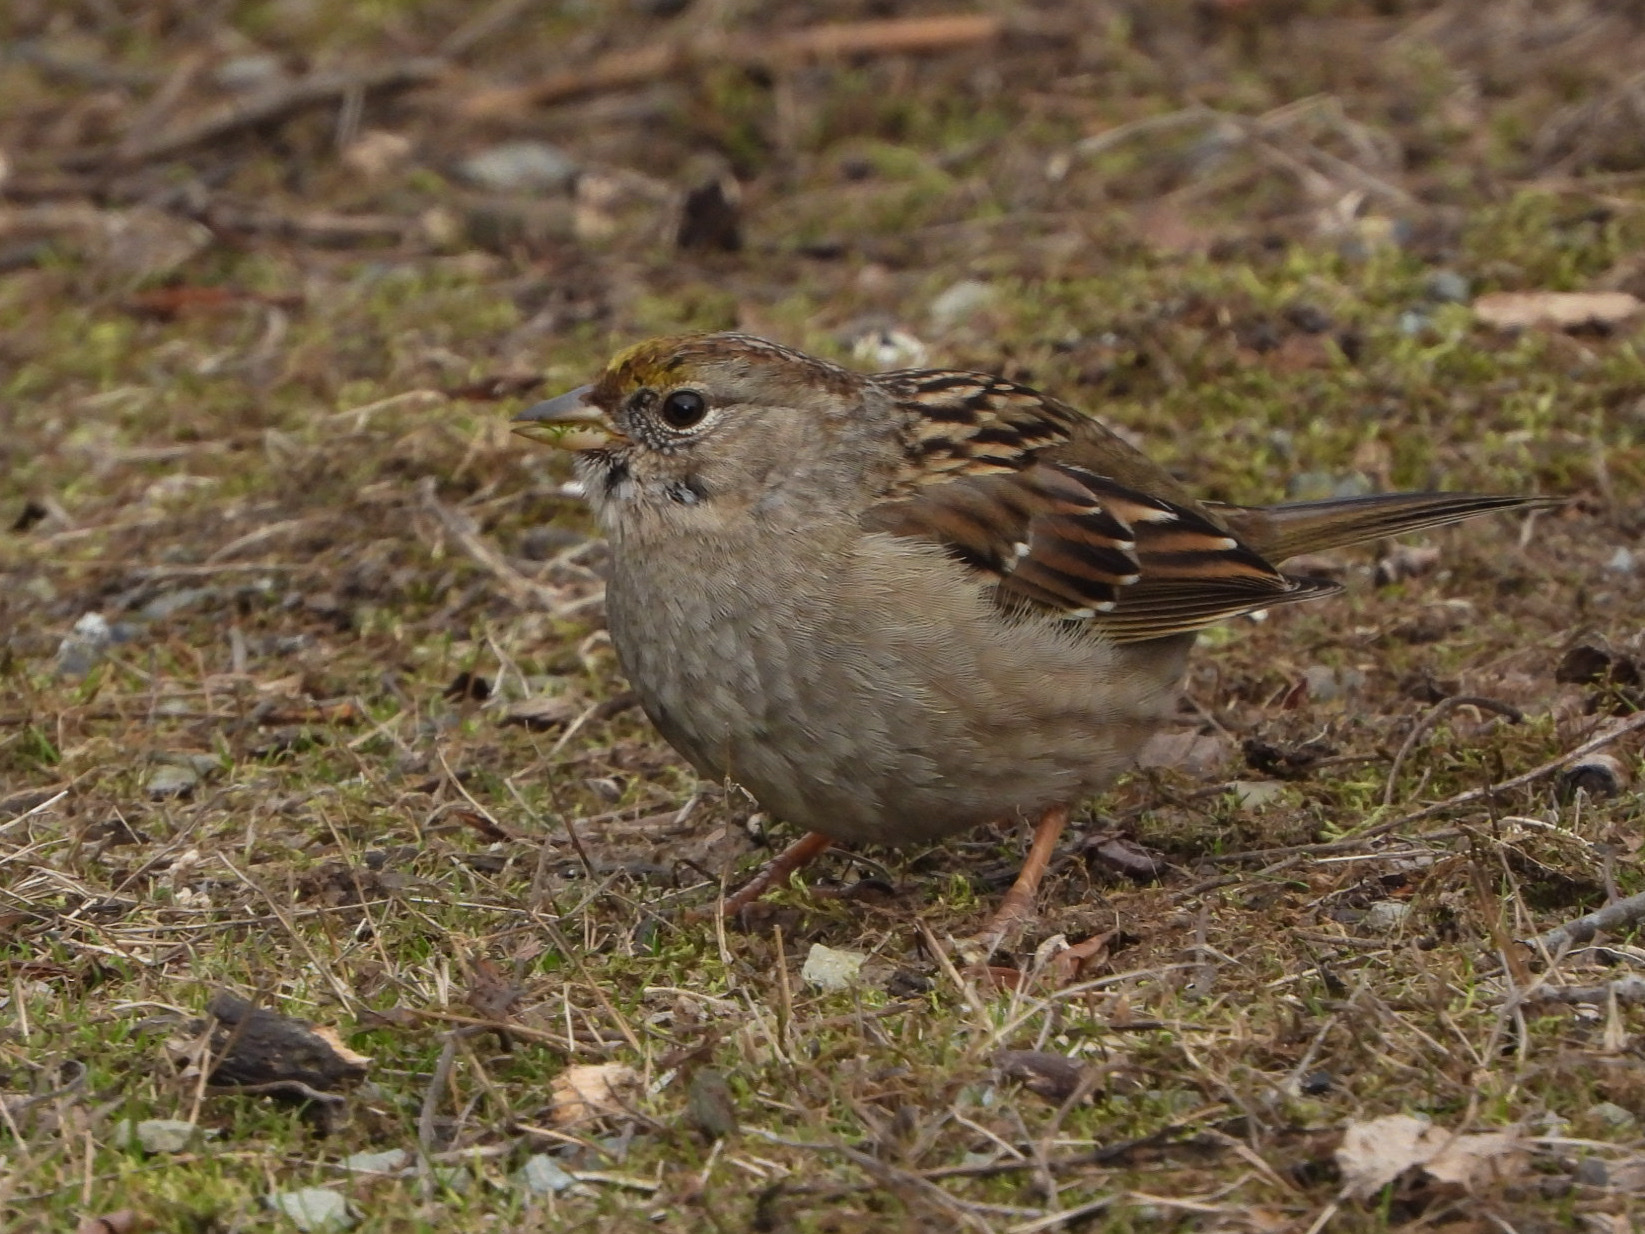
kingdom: Animalia
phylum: Chordata
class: Aves
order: Passeriformes
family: Passerellidae
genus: Zonotrichia
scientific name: Zonotrichia atricapilla
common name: Golden-crowned sparrow
